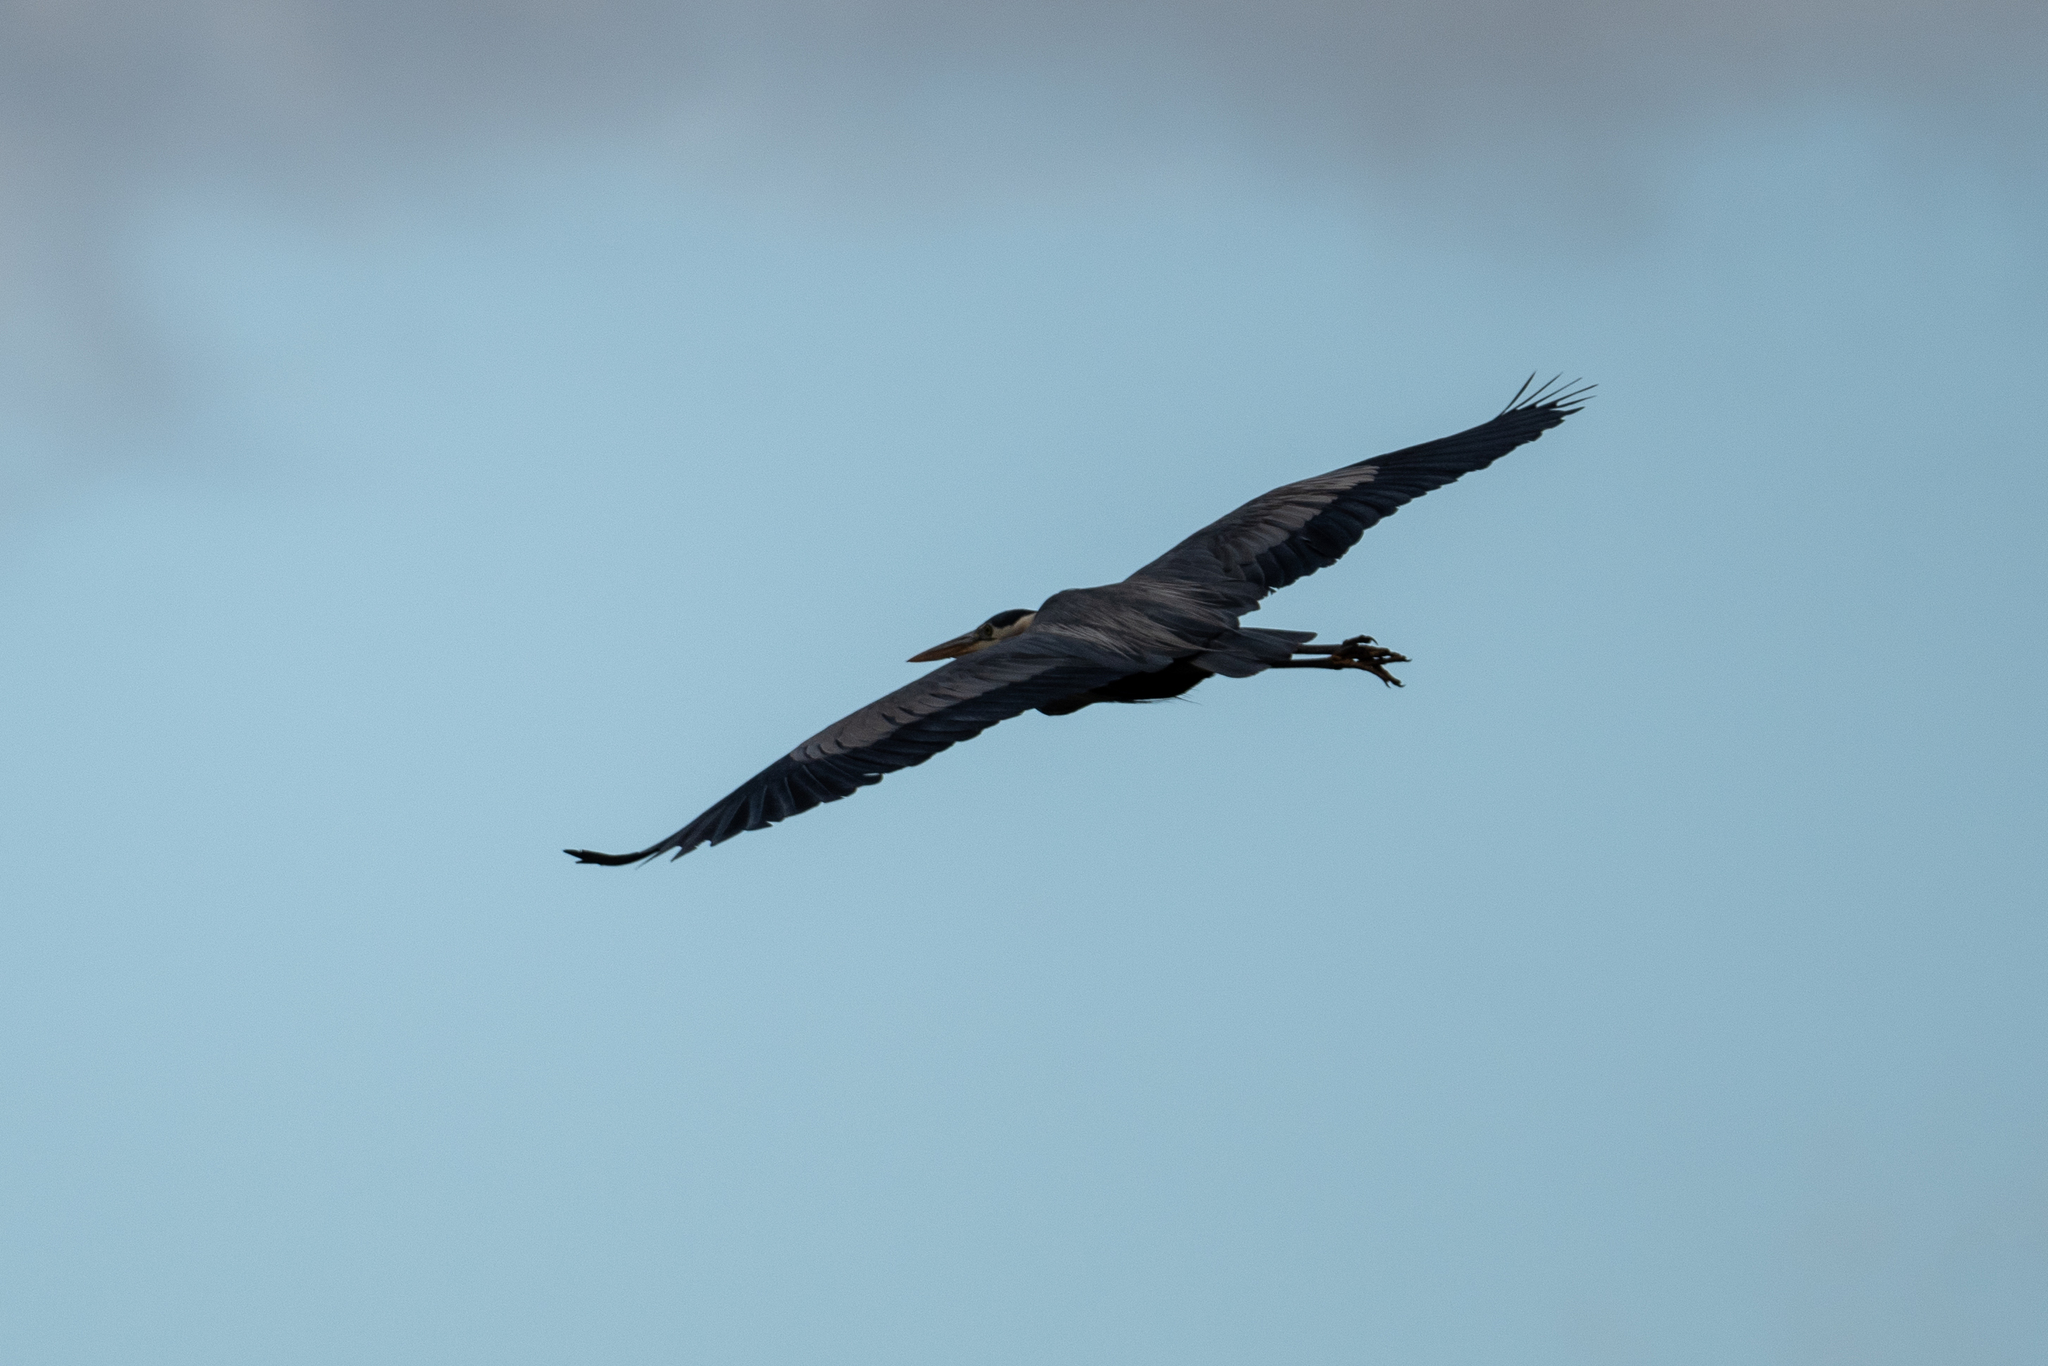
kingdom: Animalia
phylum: Chordata
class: Aves
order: Pelecaniformes
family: Ardeidae
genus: Ardea
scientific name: Ardea herodias
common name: Great blue heron
